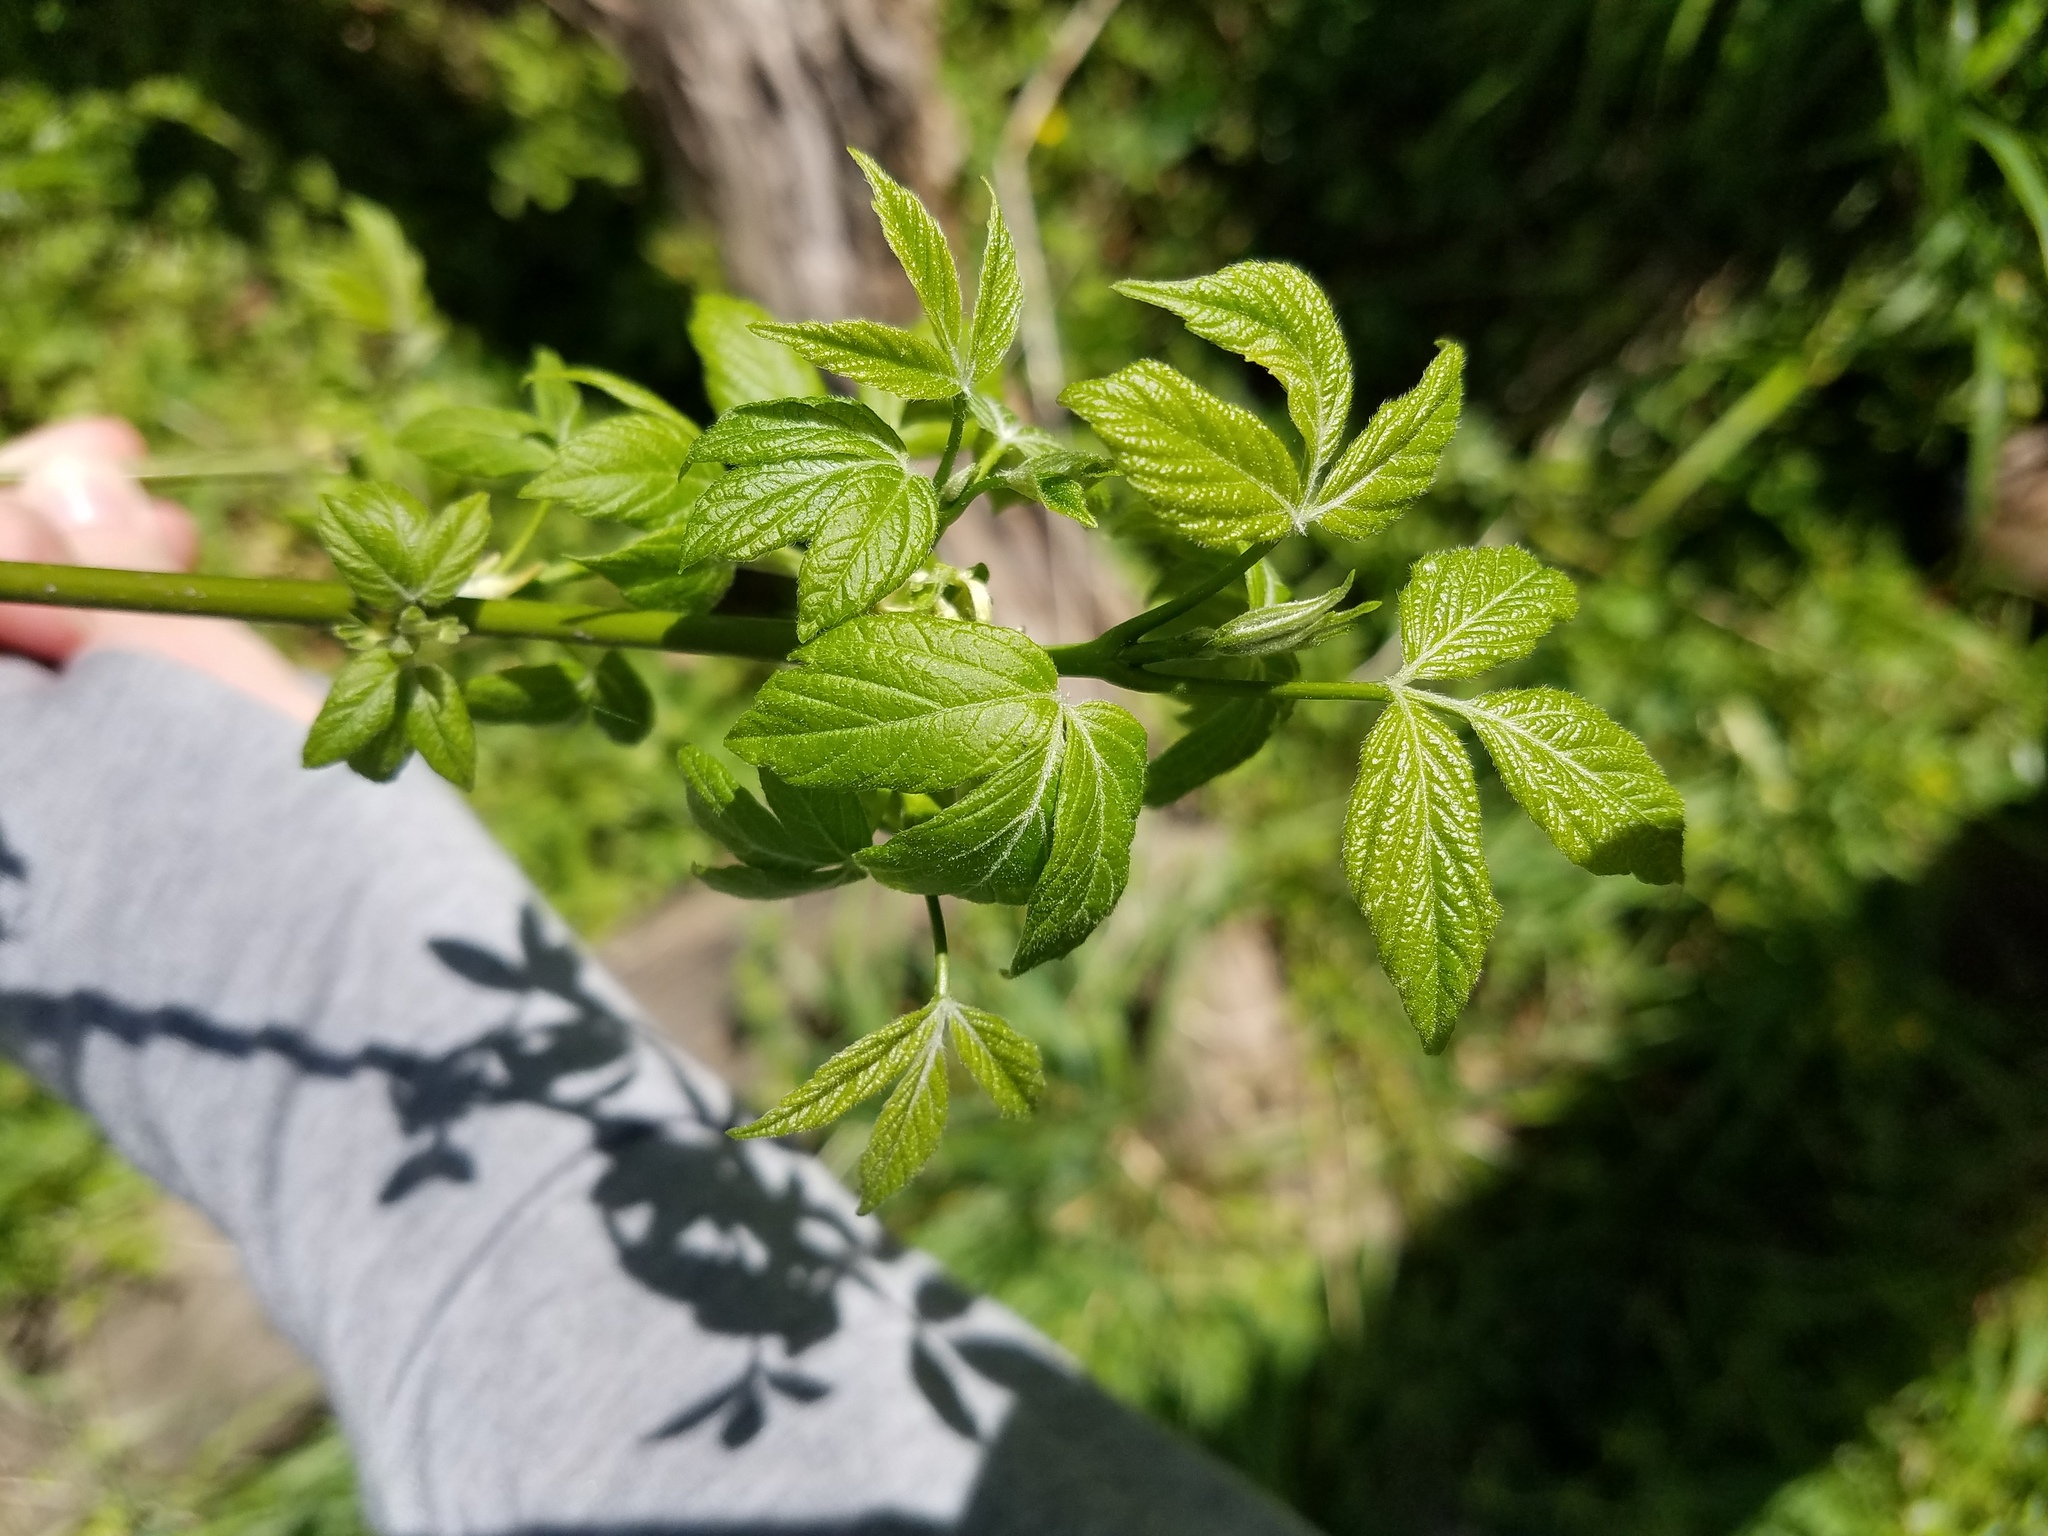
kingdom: Plantae
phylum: Tracheophyta
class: Magnoliopsida
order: Sapindales
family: Sapindaceae
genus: Acer
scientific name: Acer negundo
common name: Ashleaf maple
